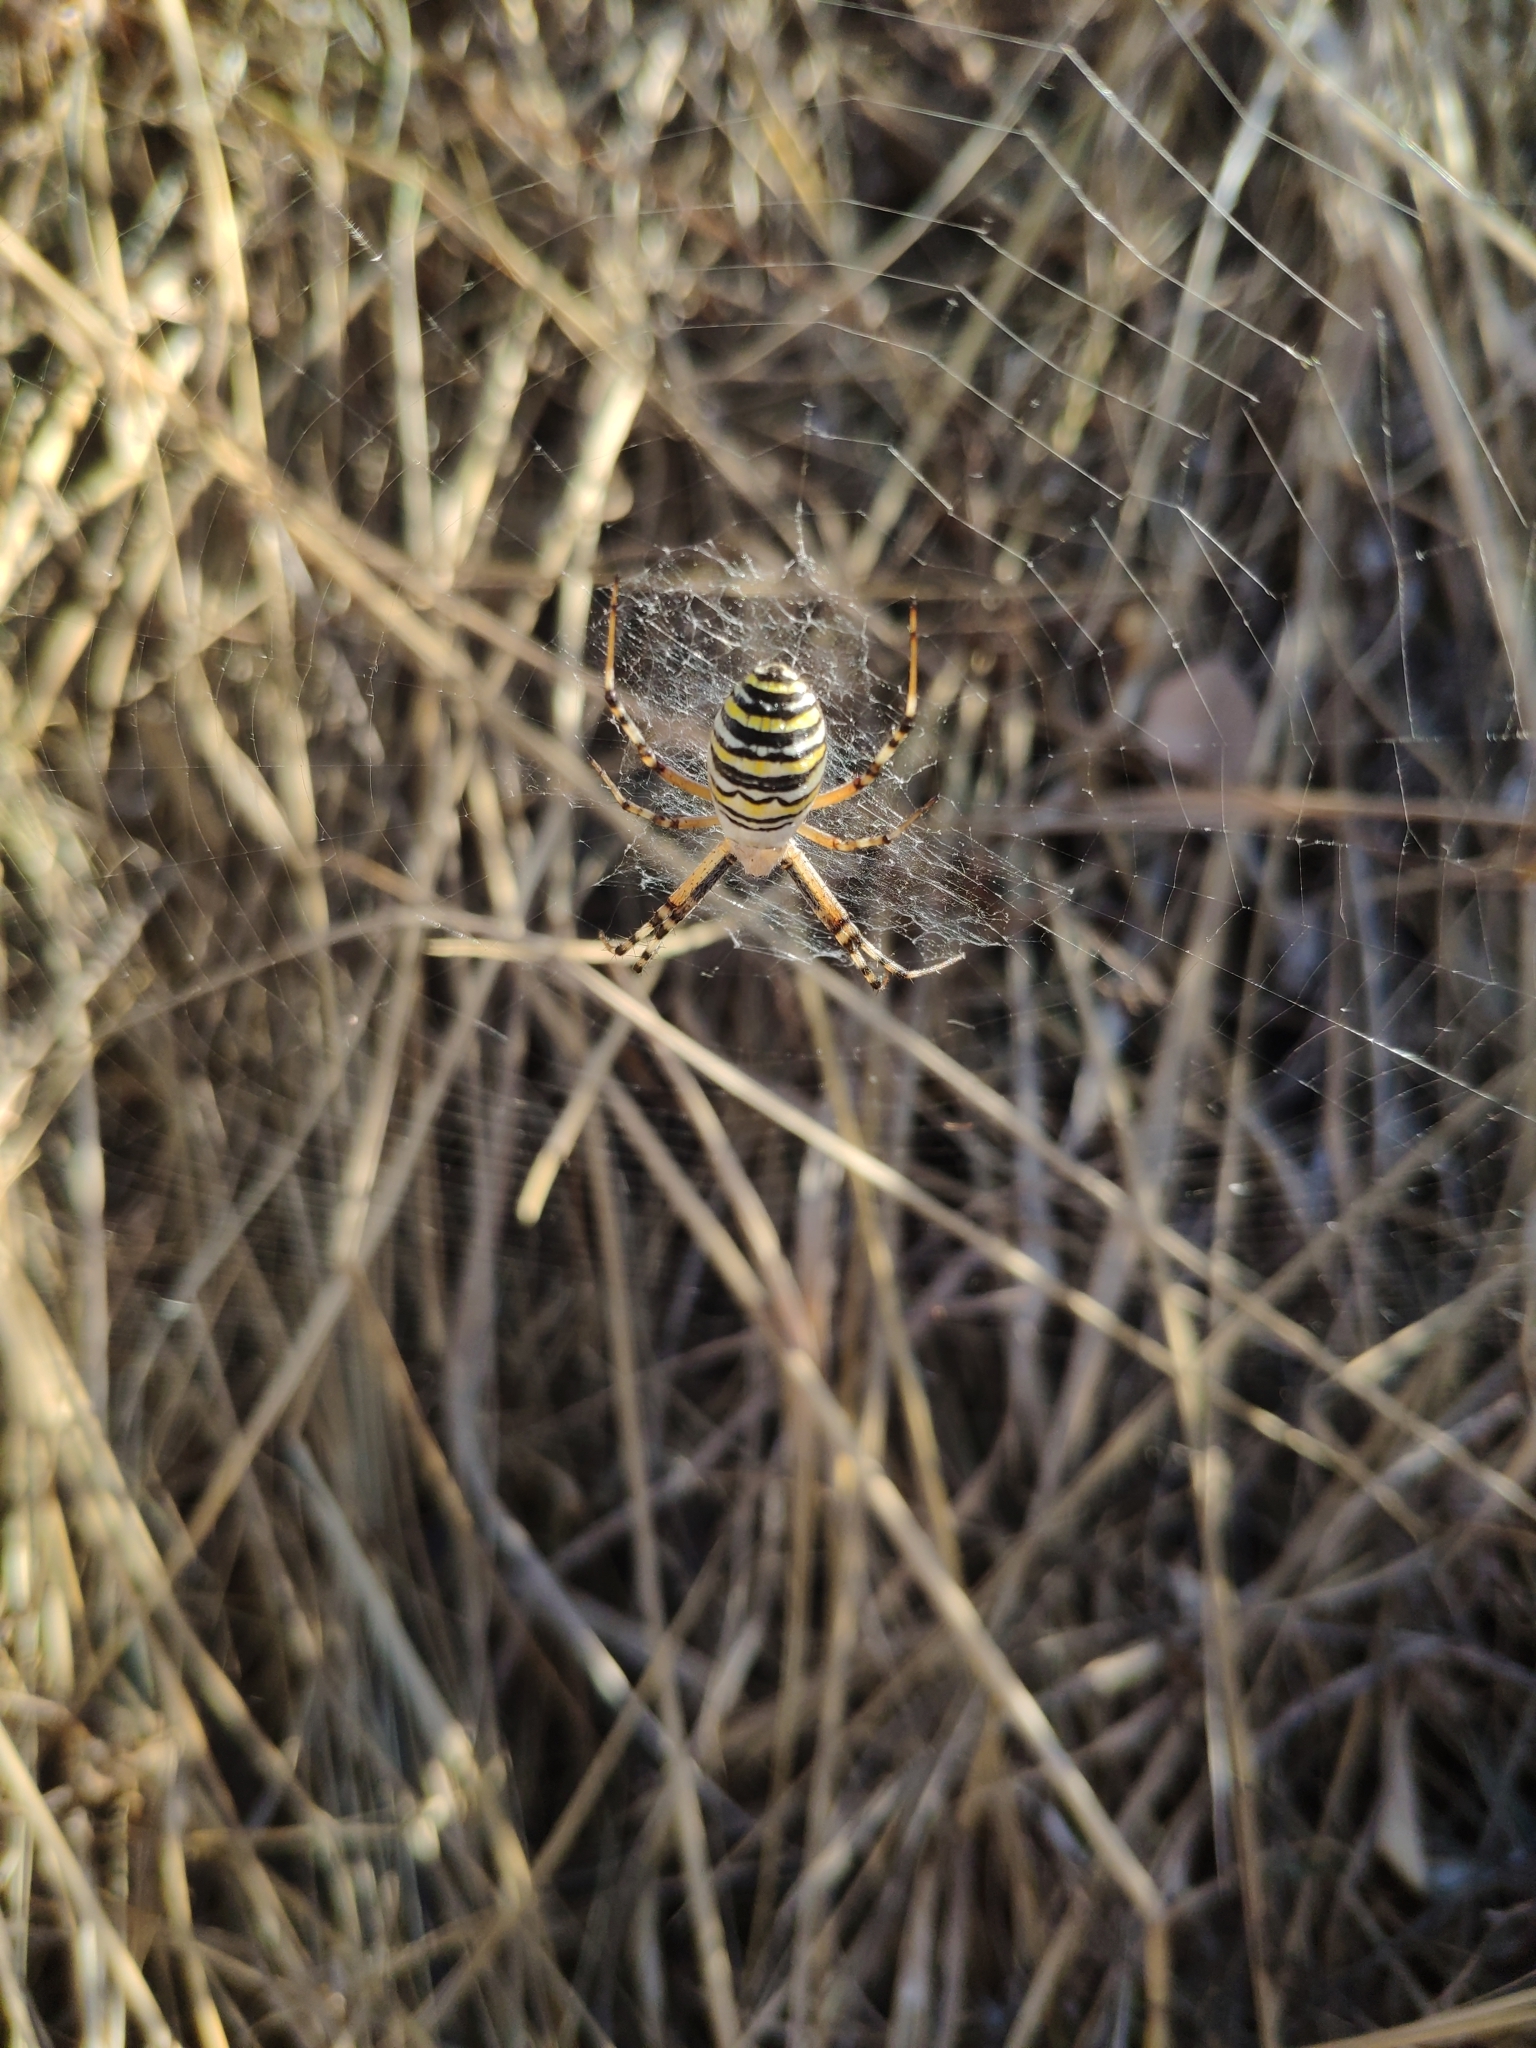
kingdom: Animalia
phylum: Arthropoda
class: Arachnida
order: Araneae
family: Araneidae
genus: Argiope
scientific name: Argiope bruennichi
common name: Wasp spider
